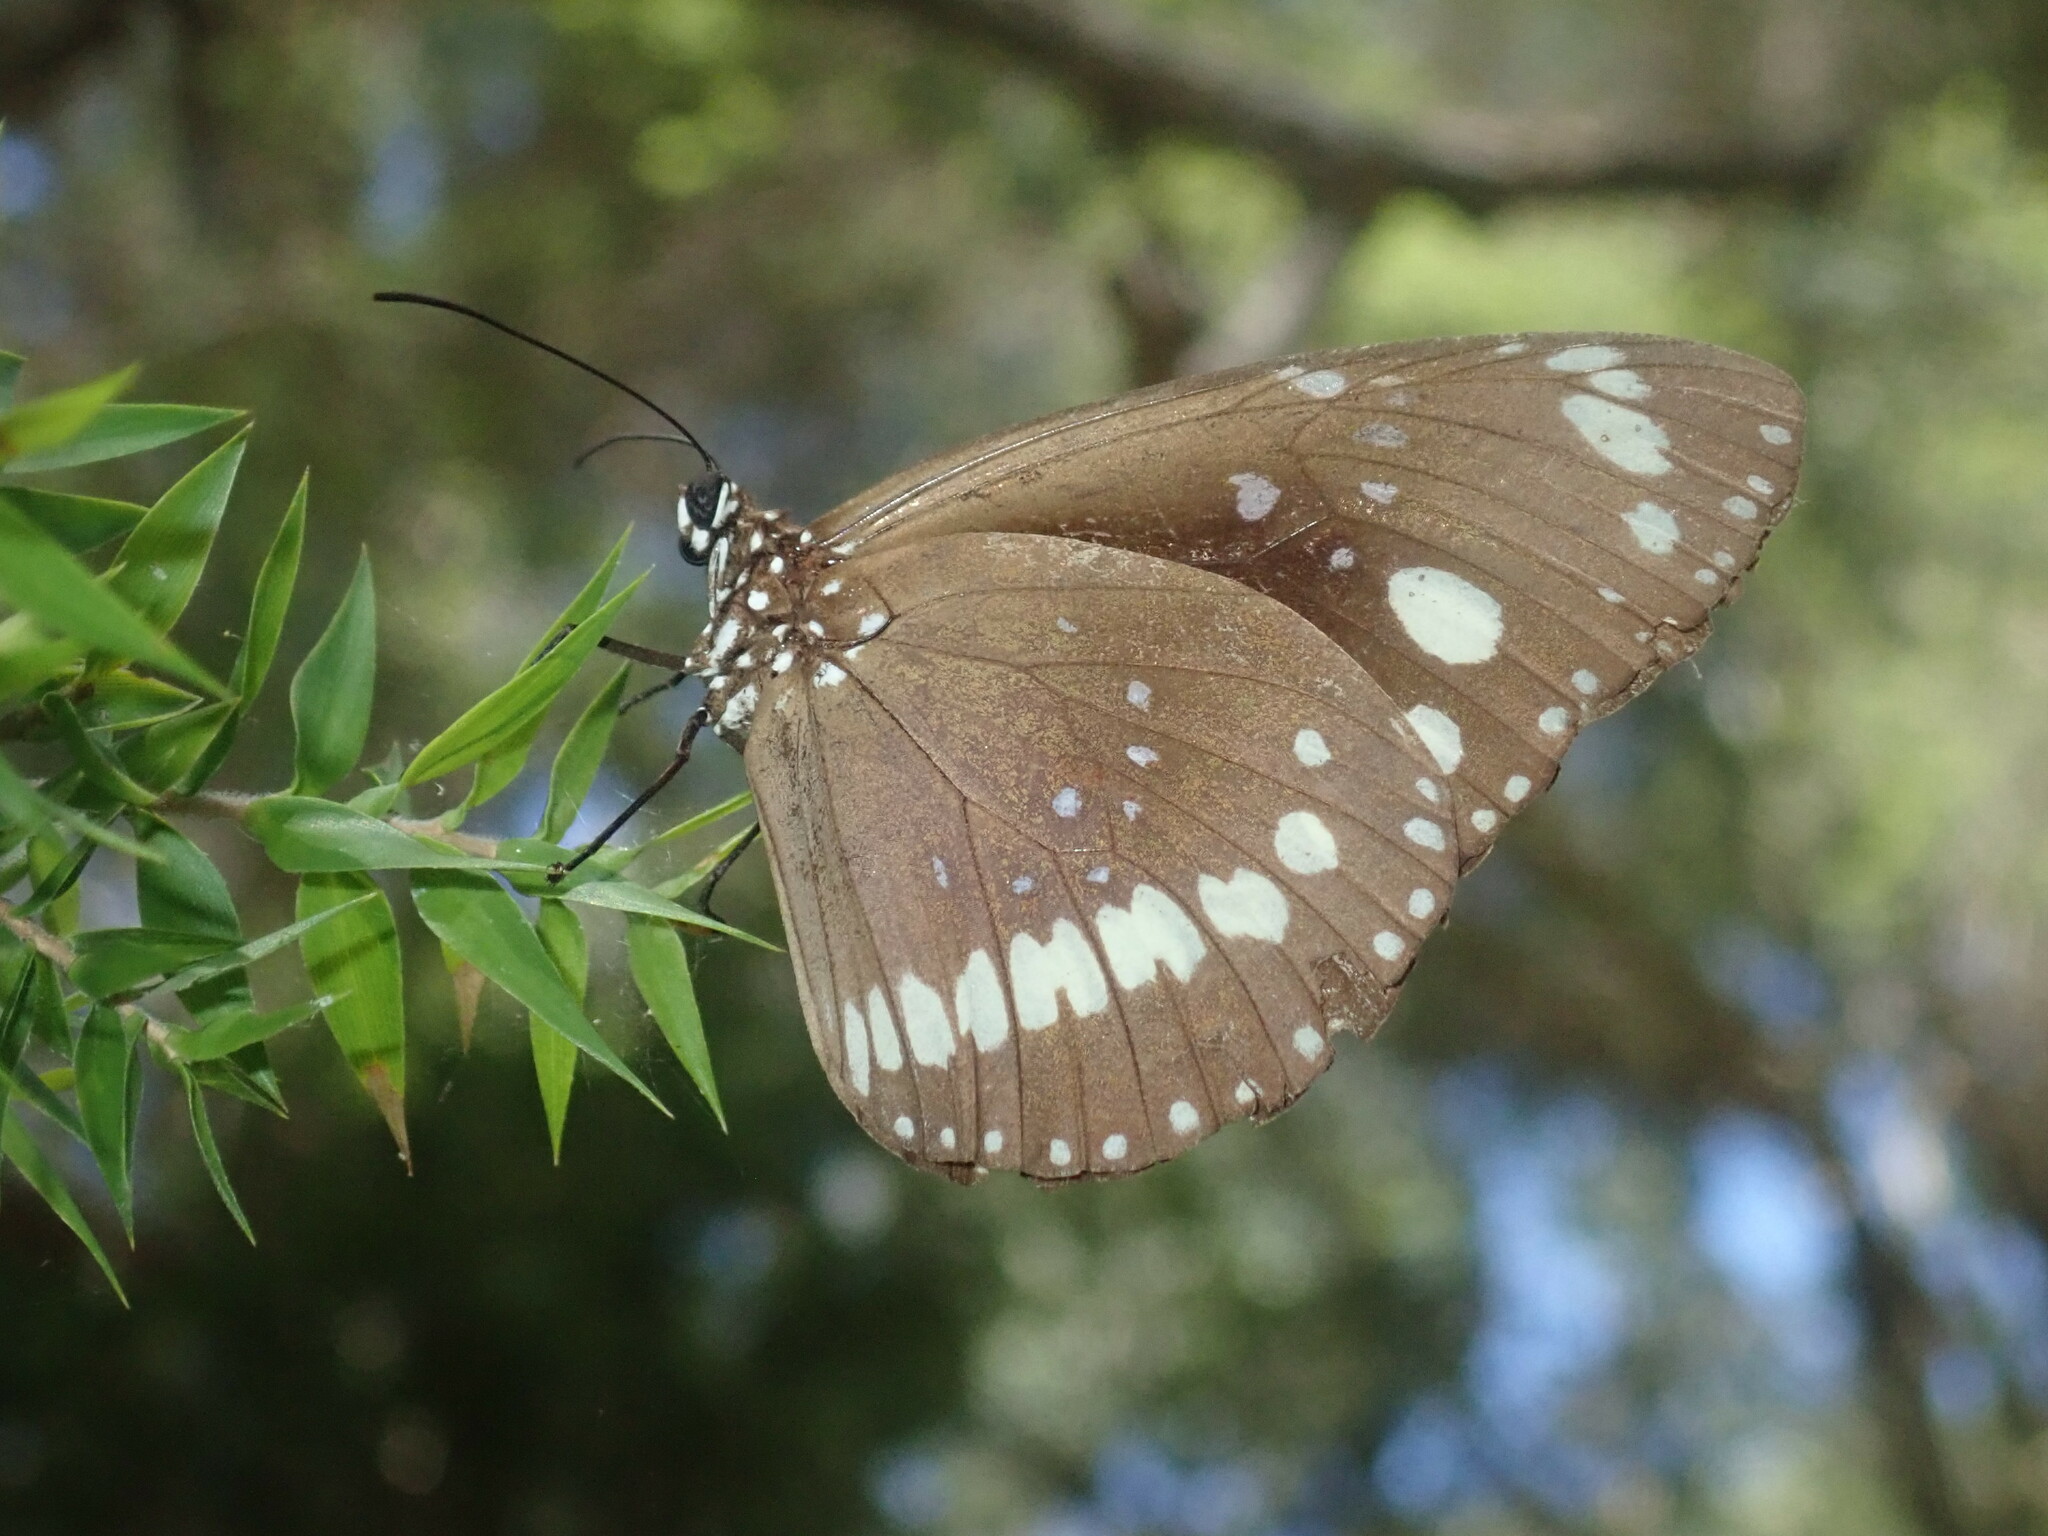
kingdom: Animalia
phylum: Arthropoda
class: Insecta
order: Lepidoptera
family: Nymphalidae
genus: Euploea
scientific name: Euploea core
